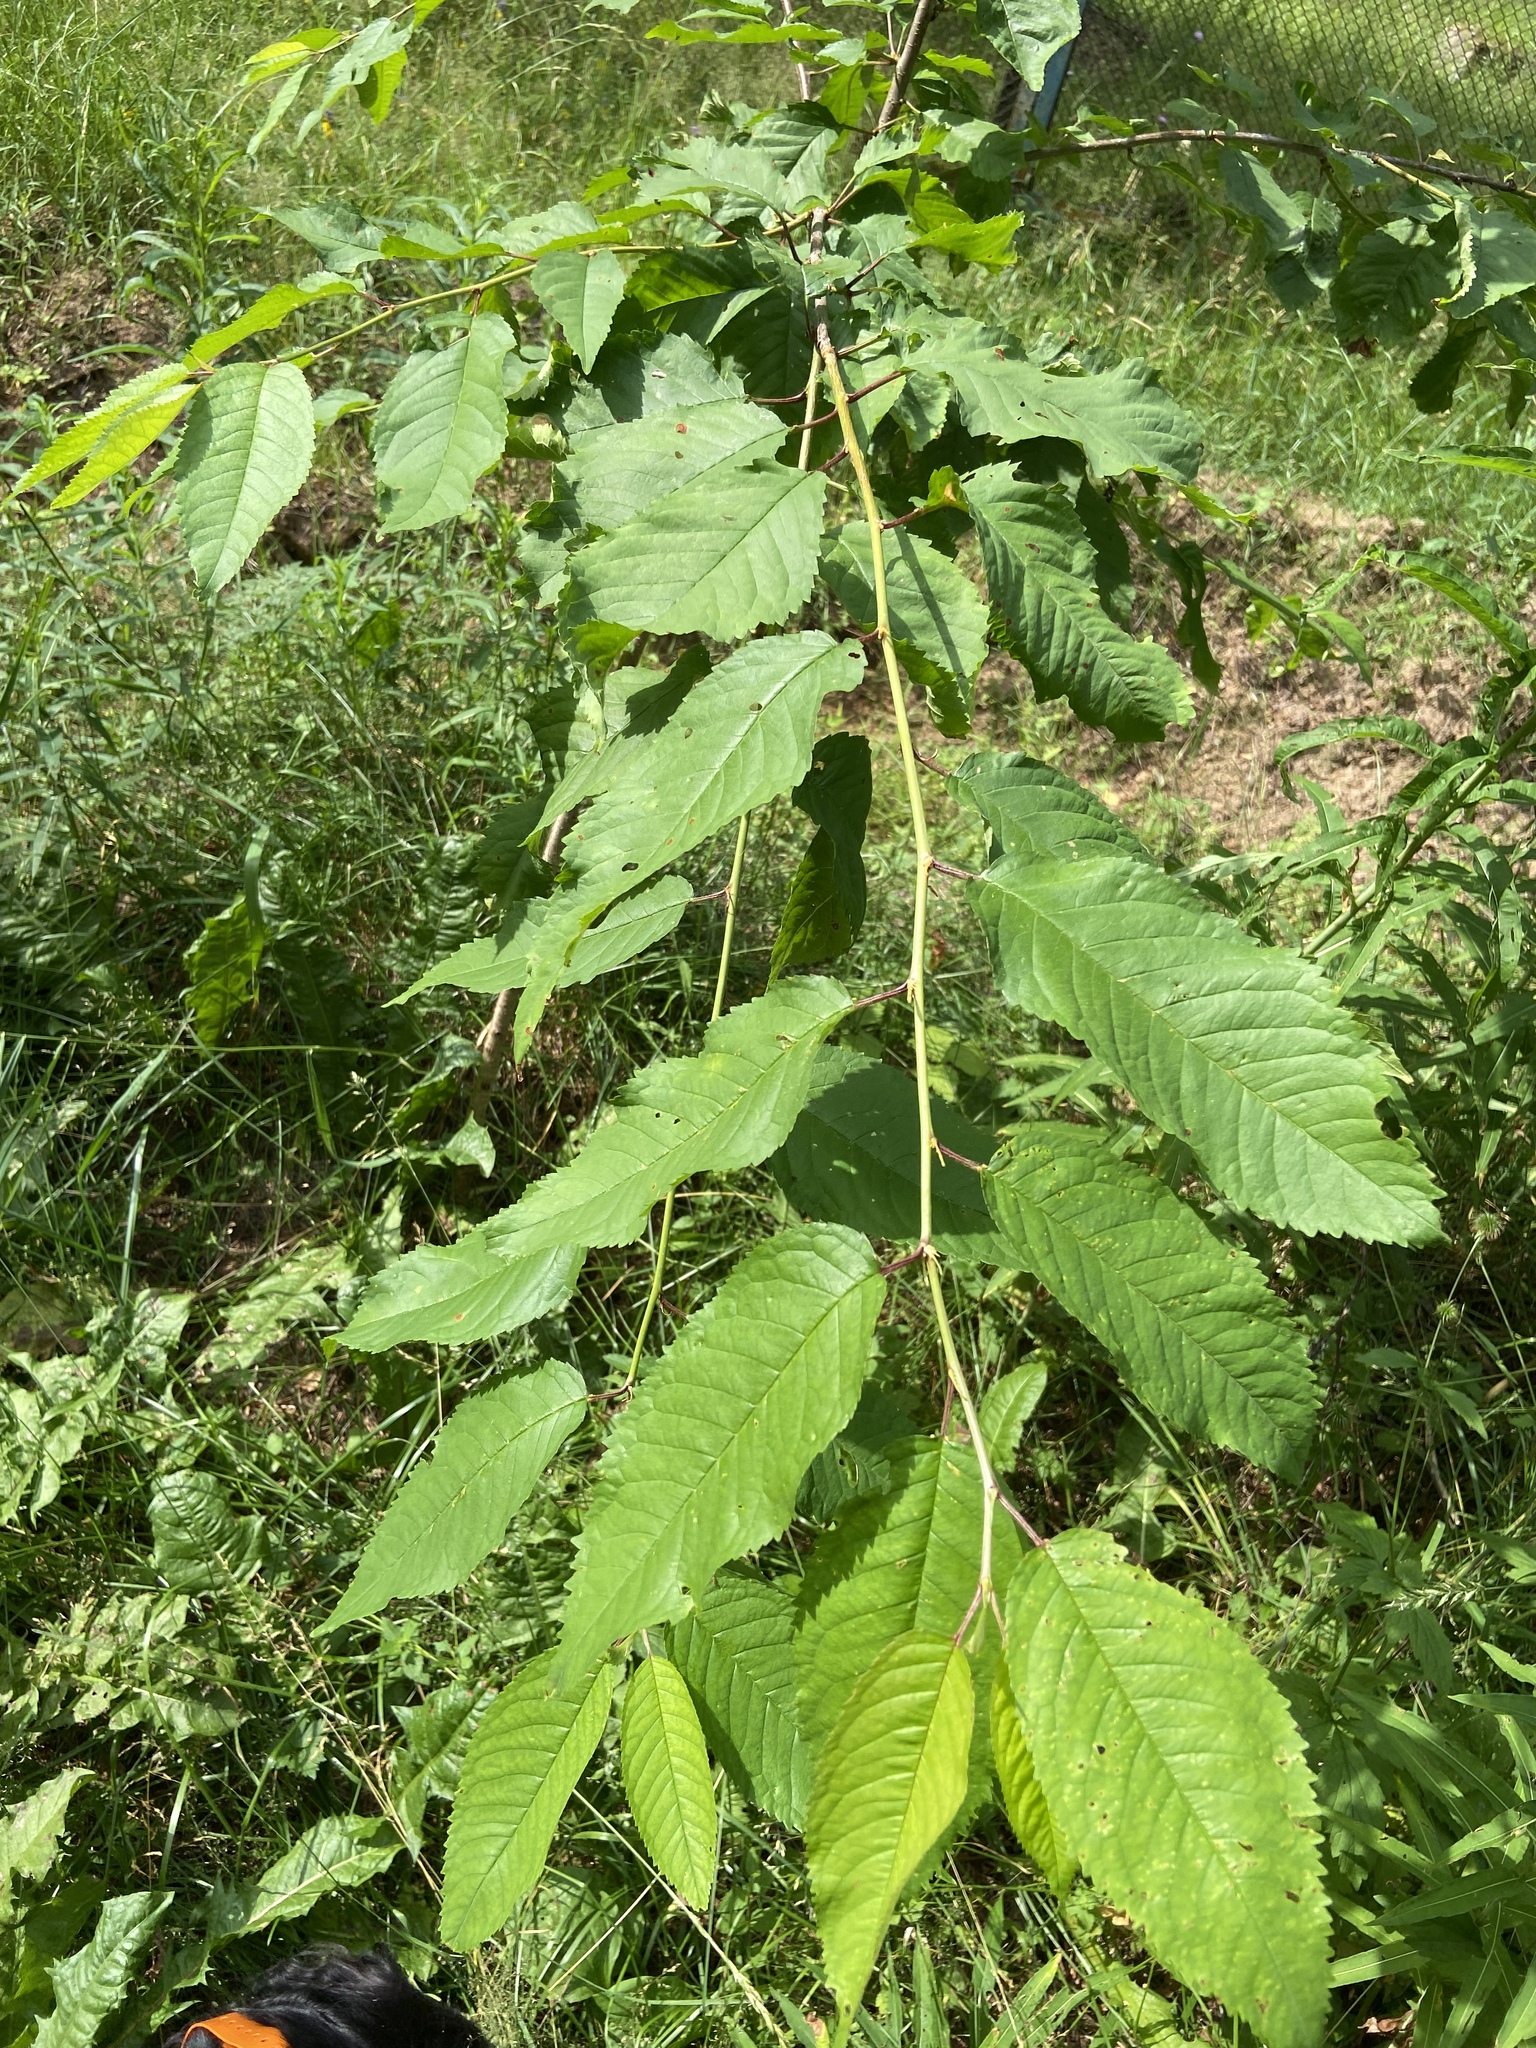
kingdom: Plantae
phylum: Tracheophyta
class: Magnoliopsida
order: Rosales
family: Rosaceae
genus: Prunus
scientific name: Prunus avium
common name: Sweet cherry
